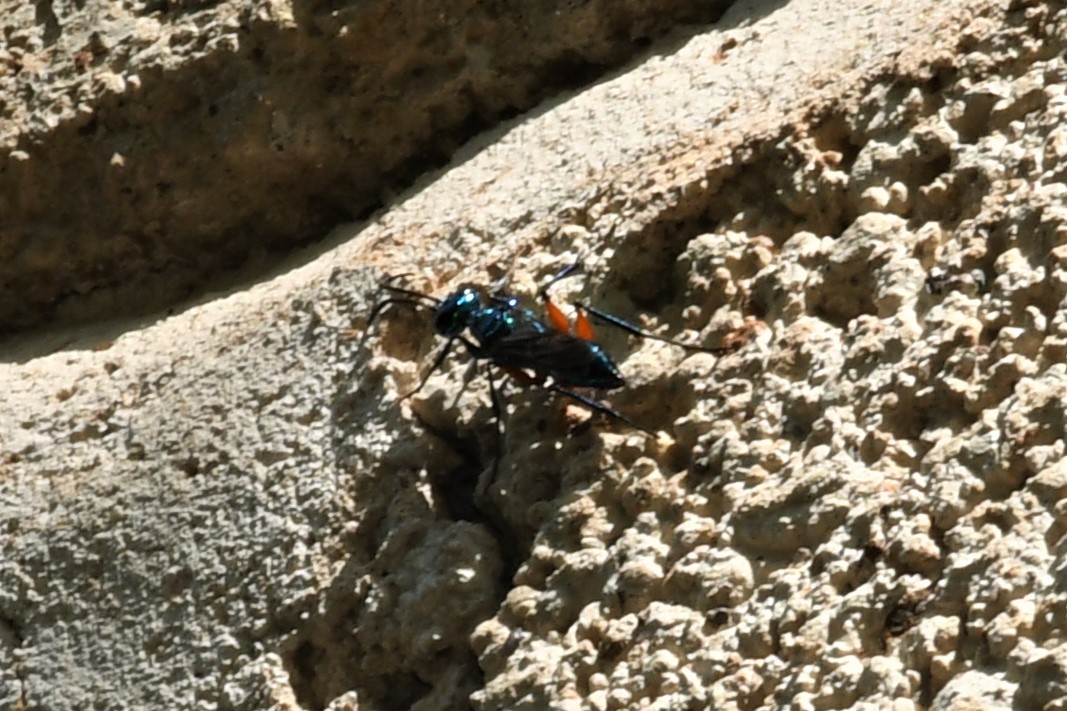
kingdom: Animalia
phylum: Arthropoda
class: Insecta
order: Hymenoptera
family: Ampulicidae
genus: Ampulex
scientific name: Ampulex compressa
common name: Emerald cockroach wasp
